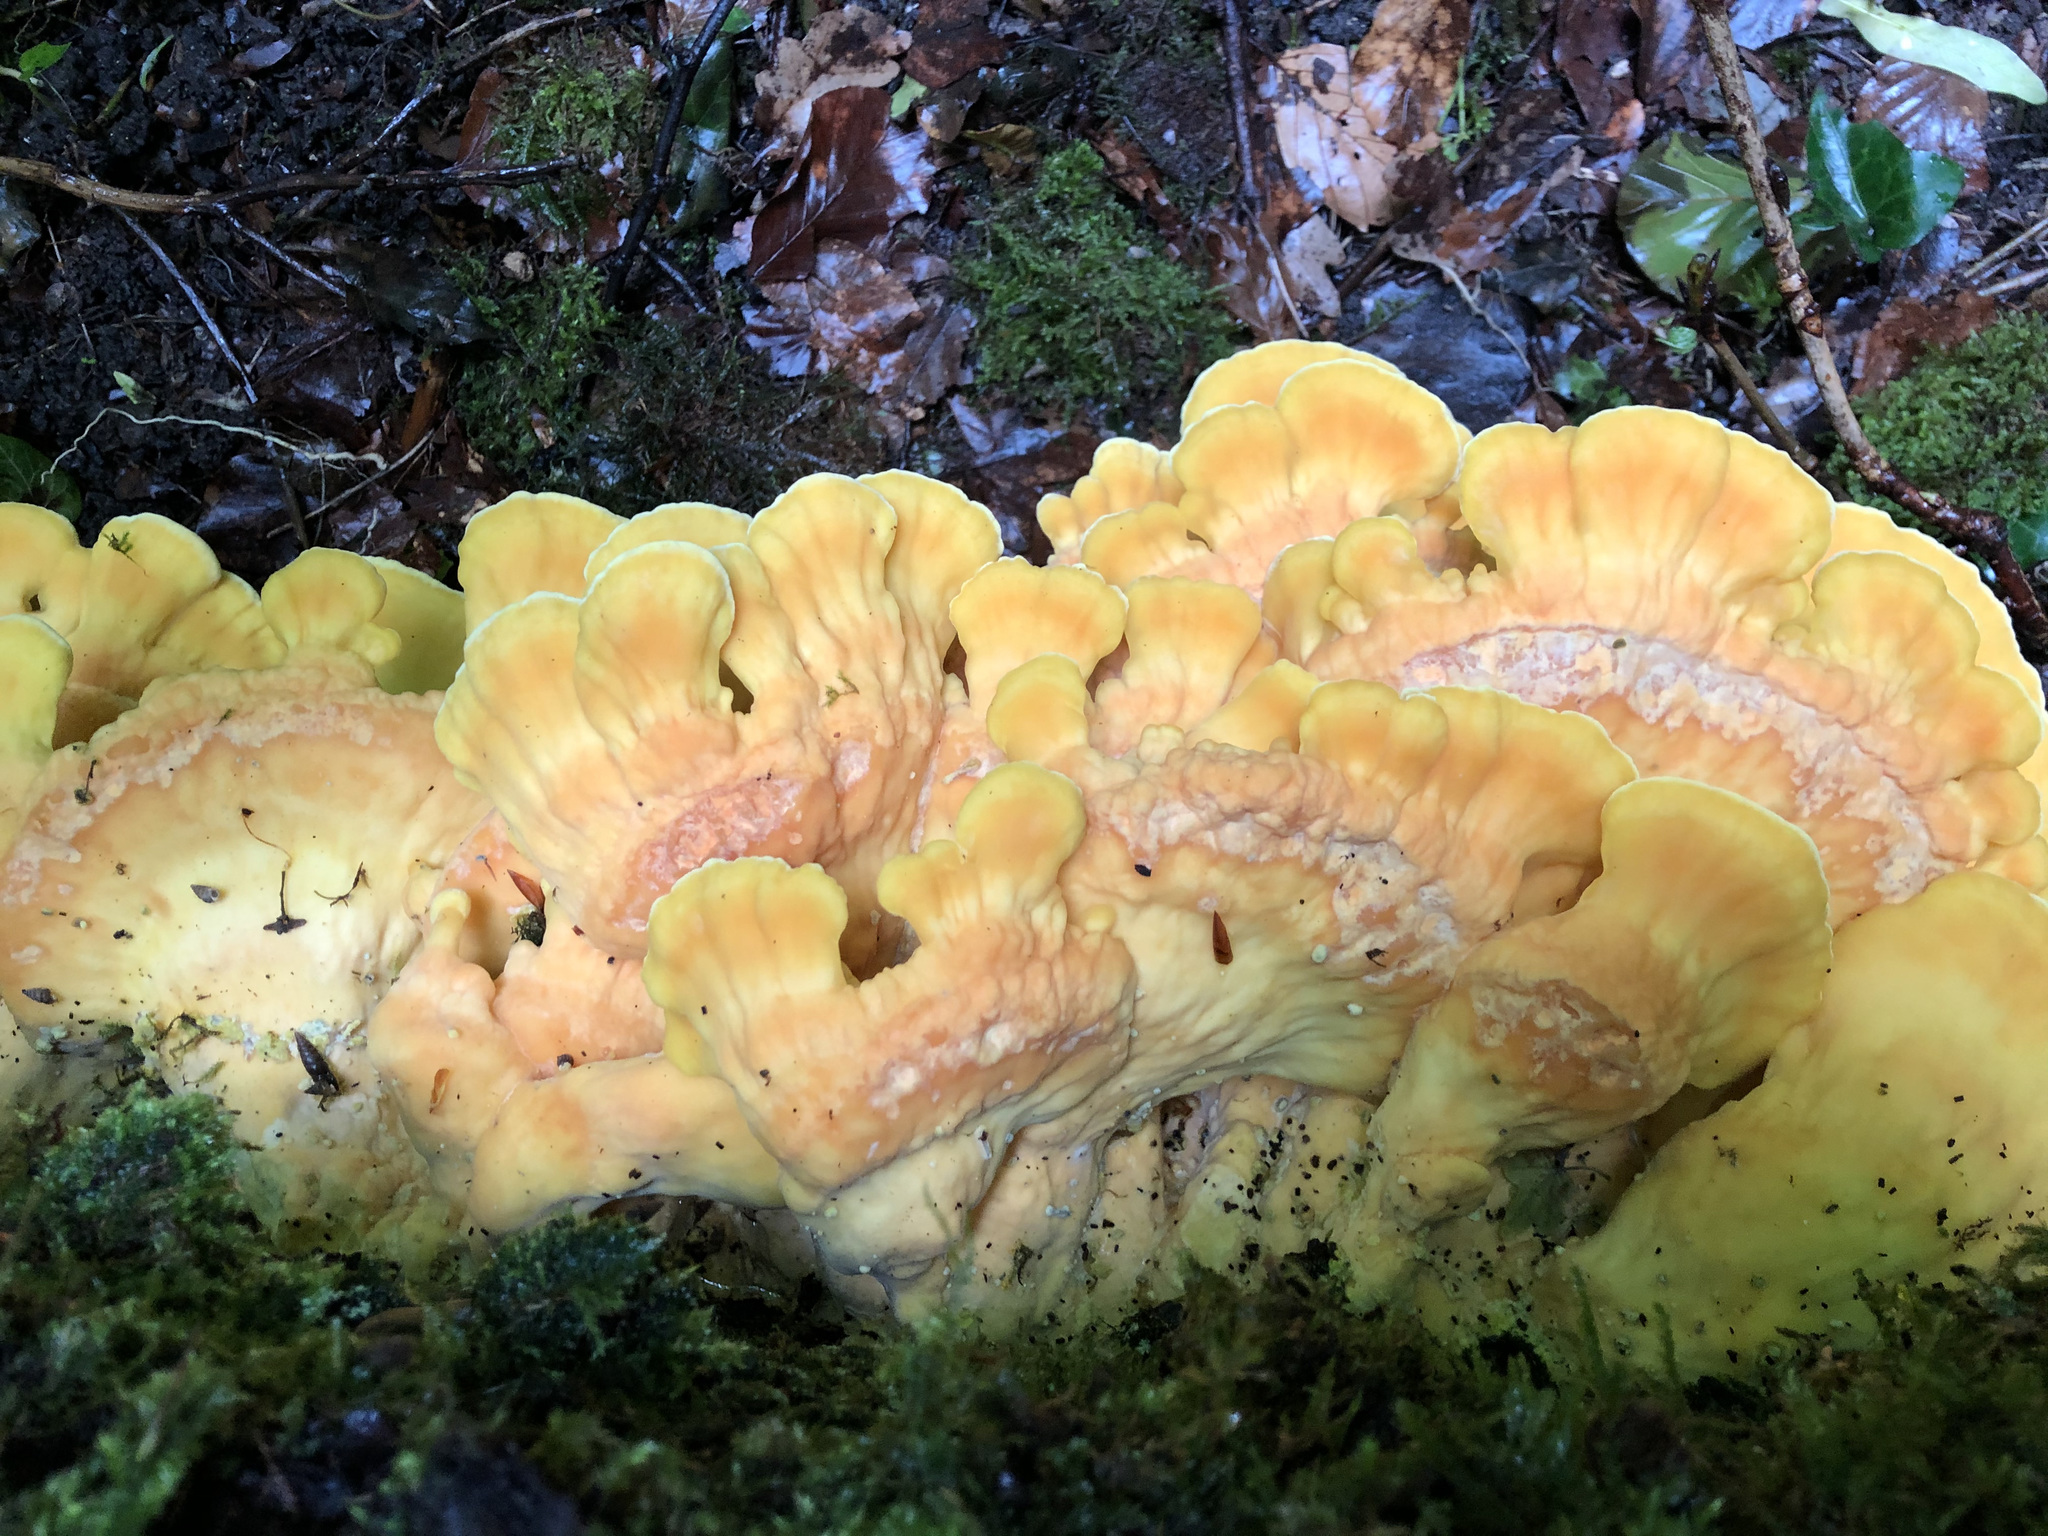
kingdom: Fungi
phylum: Basidiomycota
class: Agaricomycetes
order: Polyporales
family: Laetiporaceae
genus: Laetiporus
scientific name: Laetiporus sulphureus
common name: Chicken of the woods
